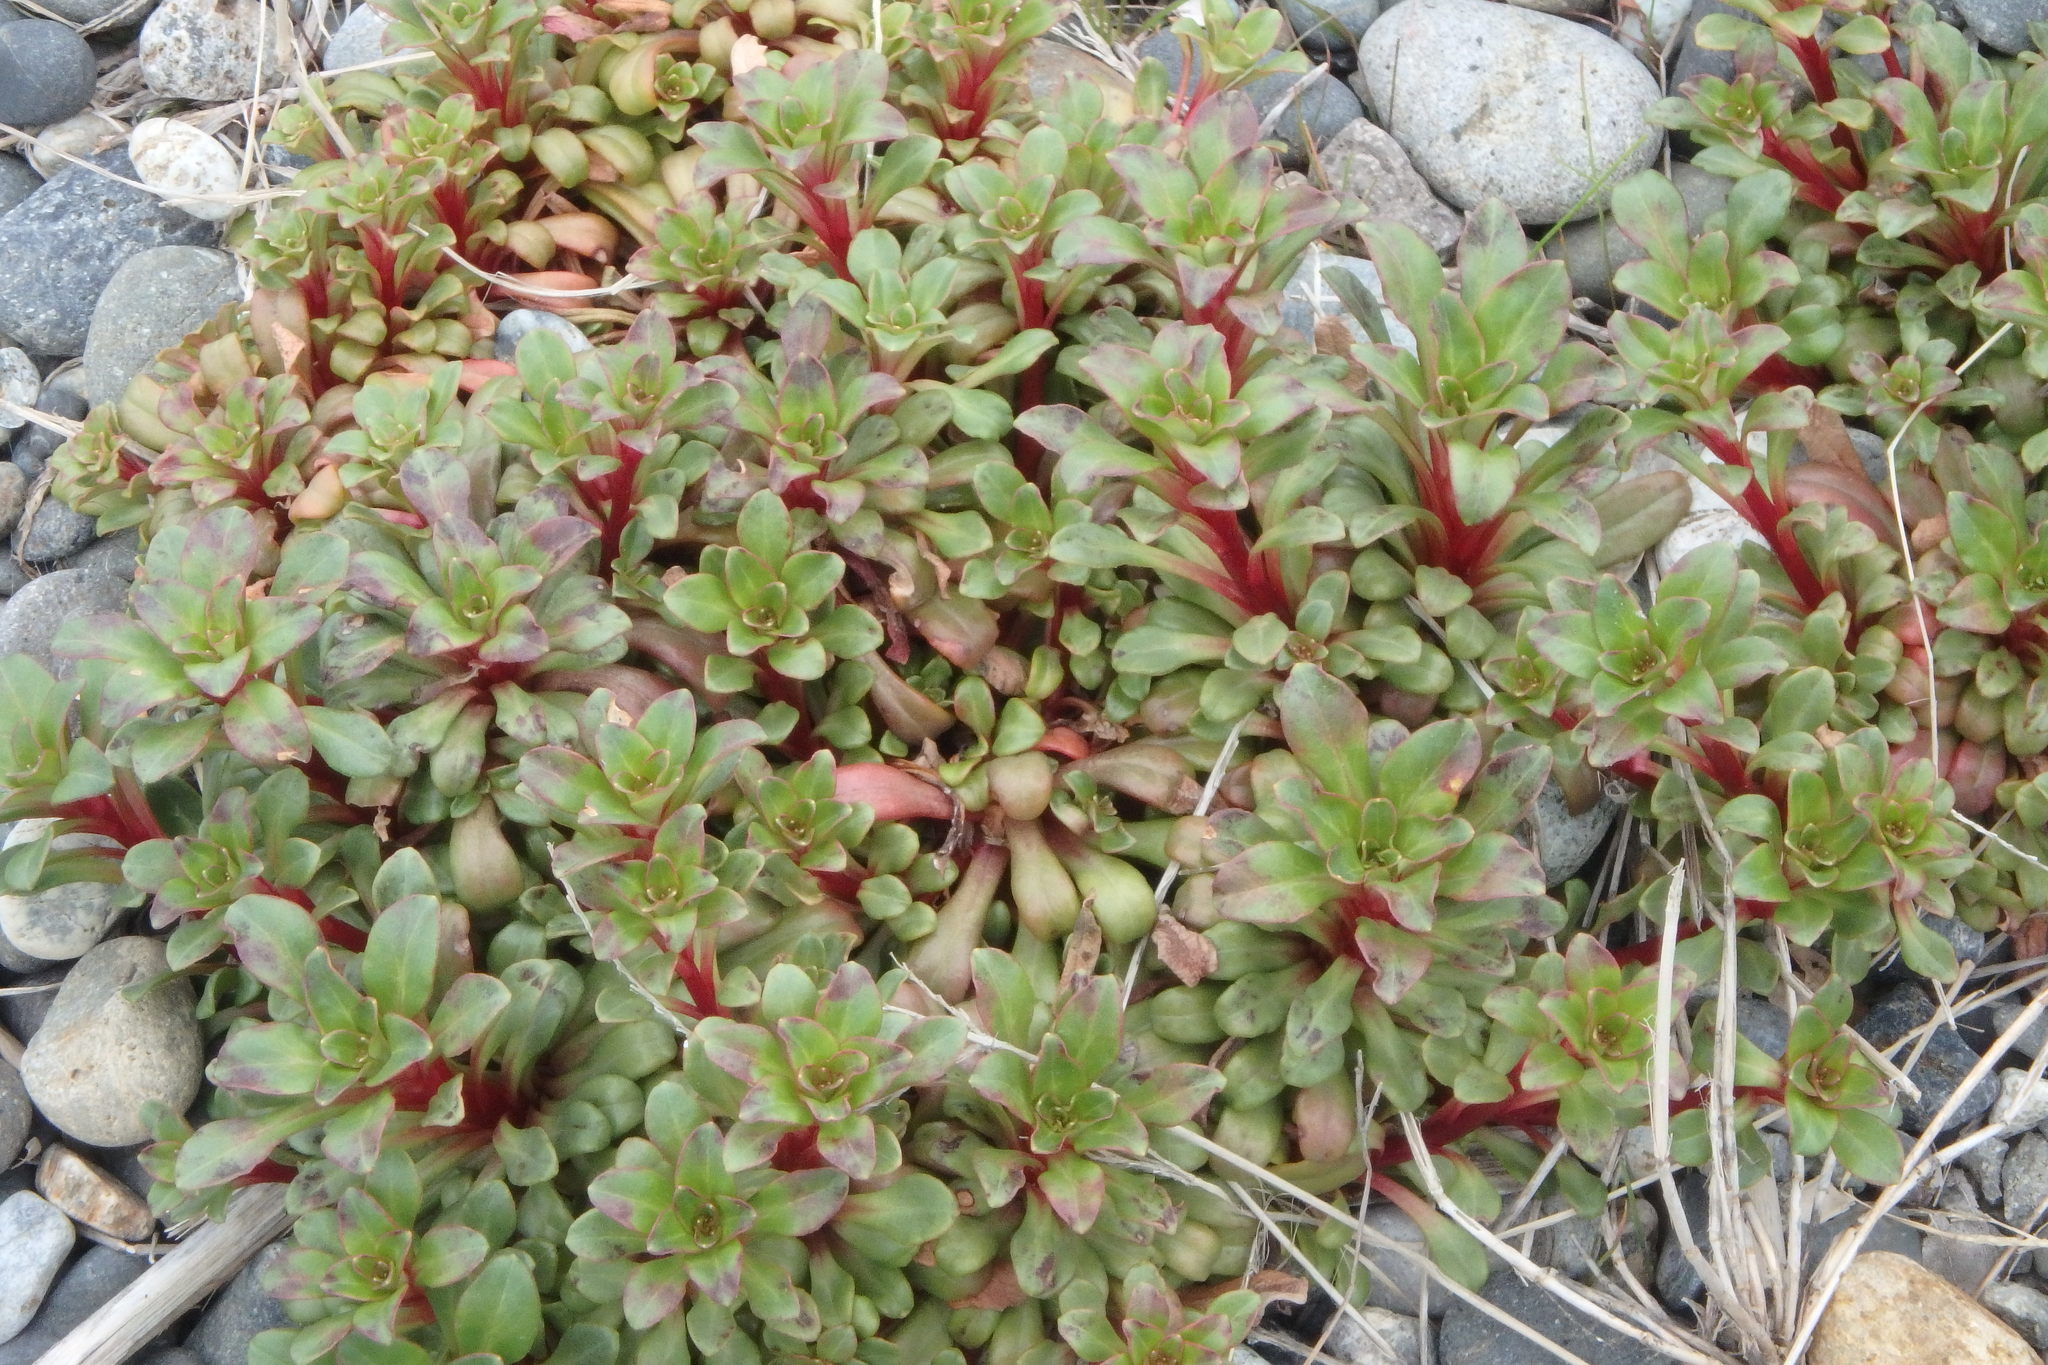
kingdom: Plantae
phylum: Tracheophyta
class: Magnoliopsida
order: Ericales
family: Primulaceae
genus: Lysimachia
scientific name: Lysimachia mauritiana
